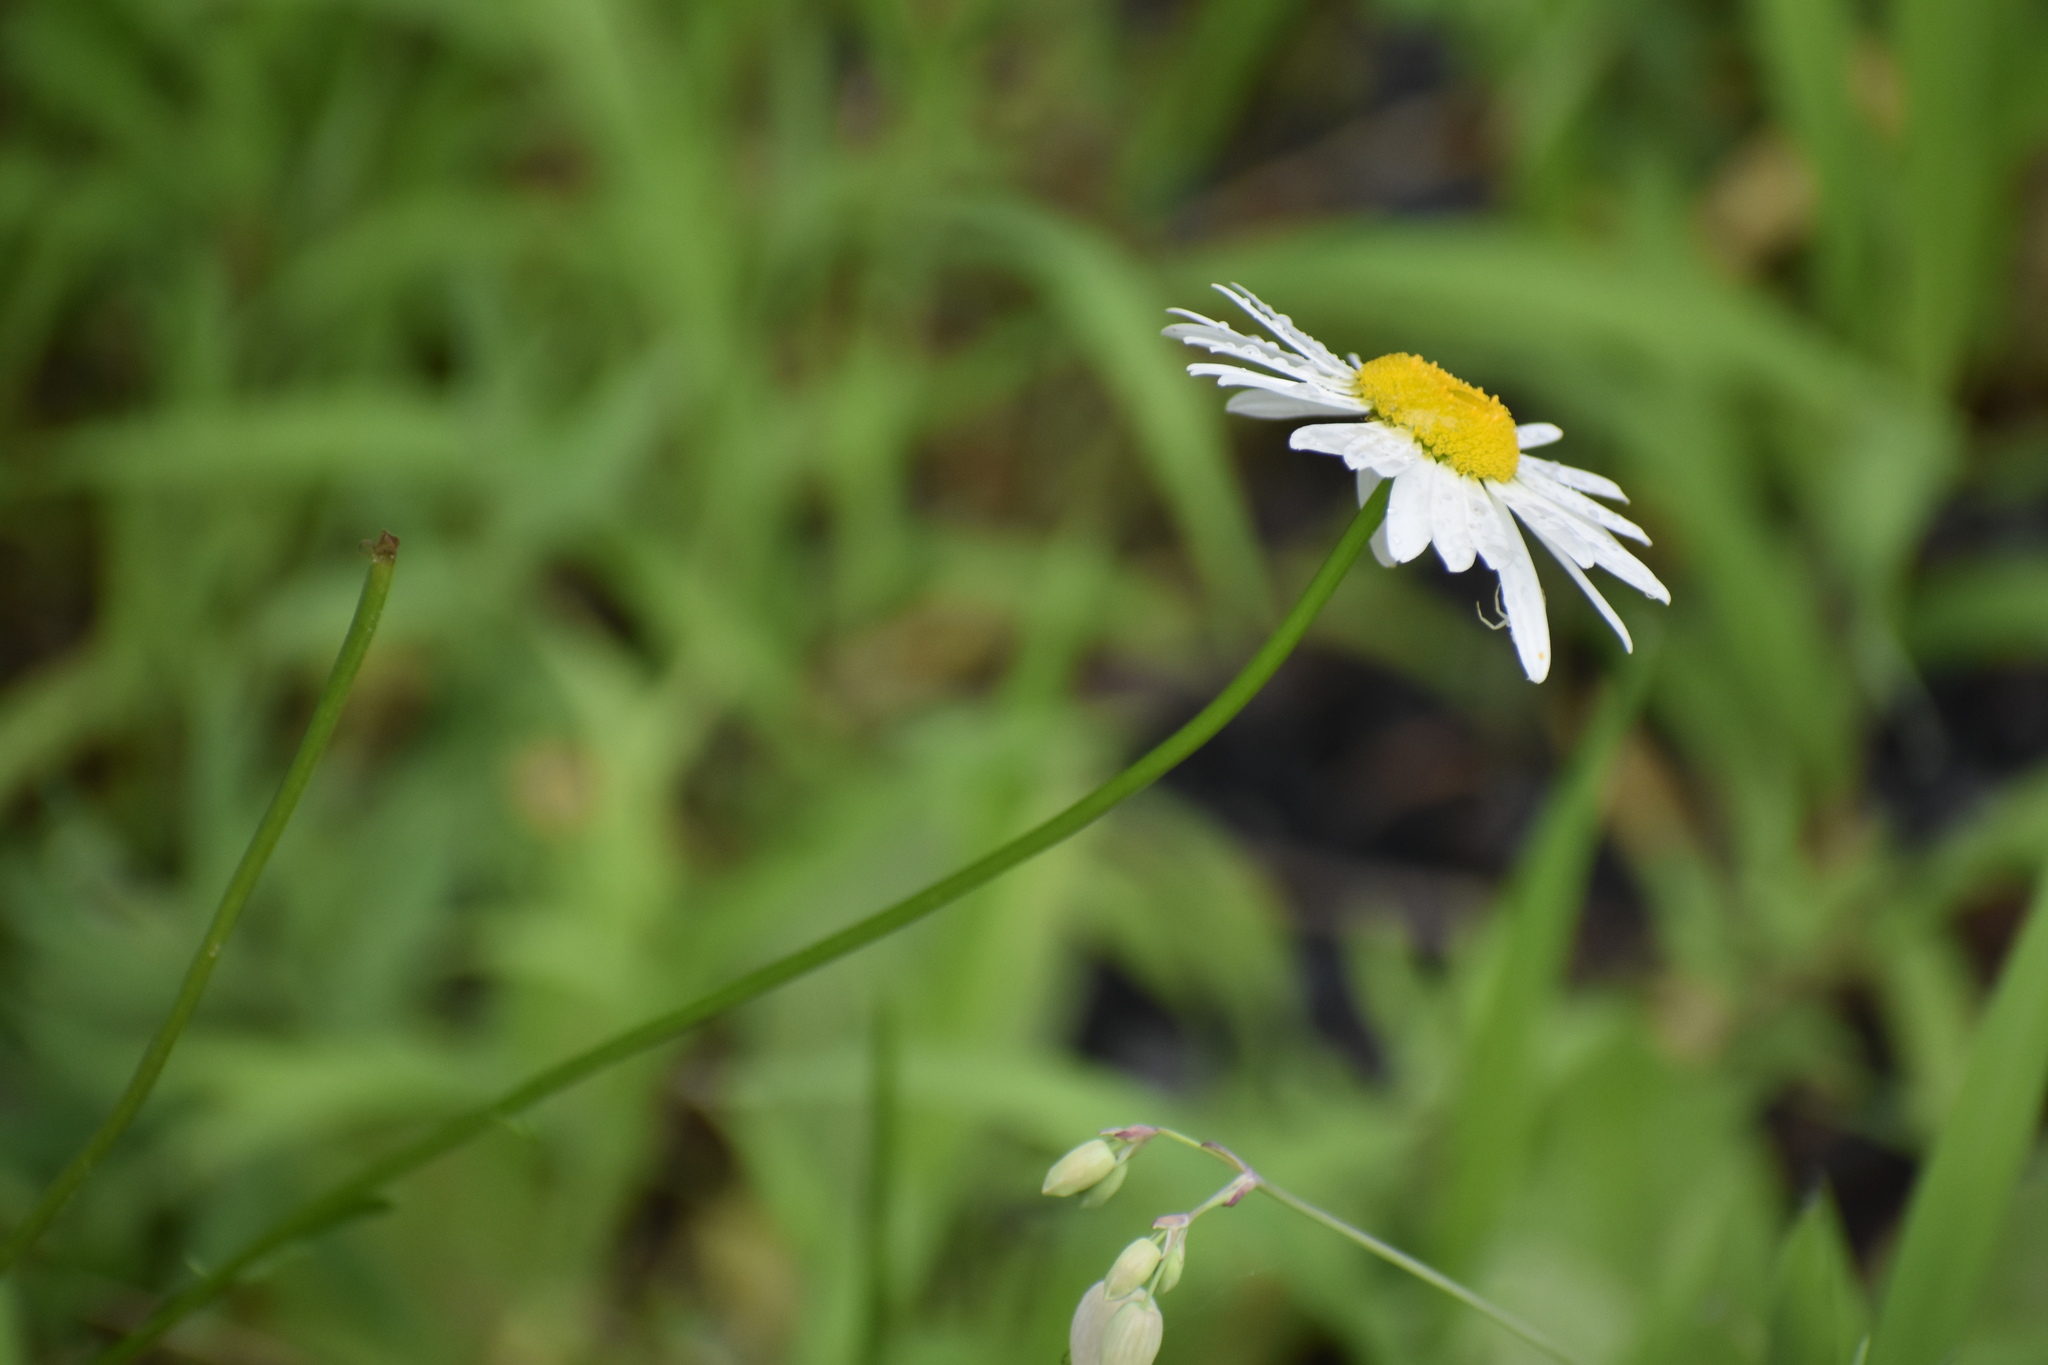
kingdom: Plantae
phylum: Tracheophyta
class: Magnoliopsida
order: Asterales
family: Asteraceae
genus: Leucanthemum
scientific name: Leucanthemum vulgare
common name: Oxeye daisy
